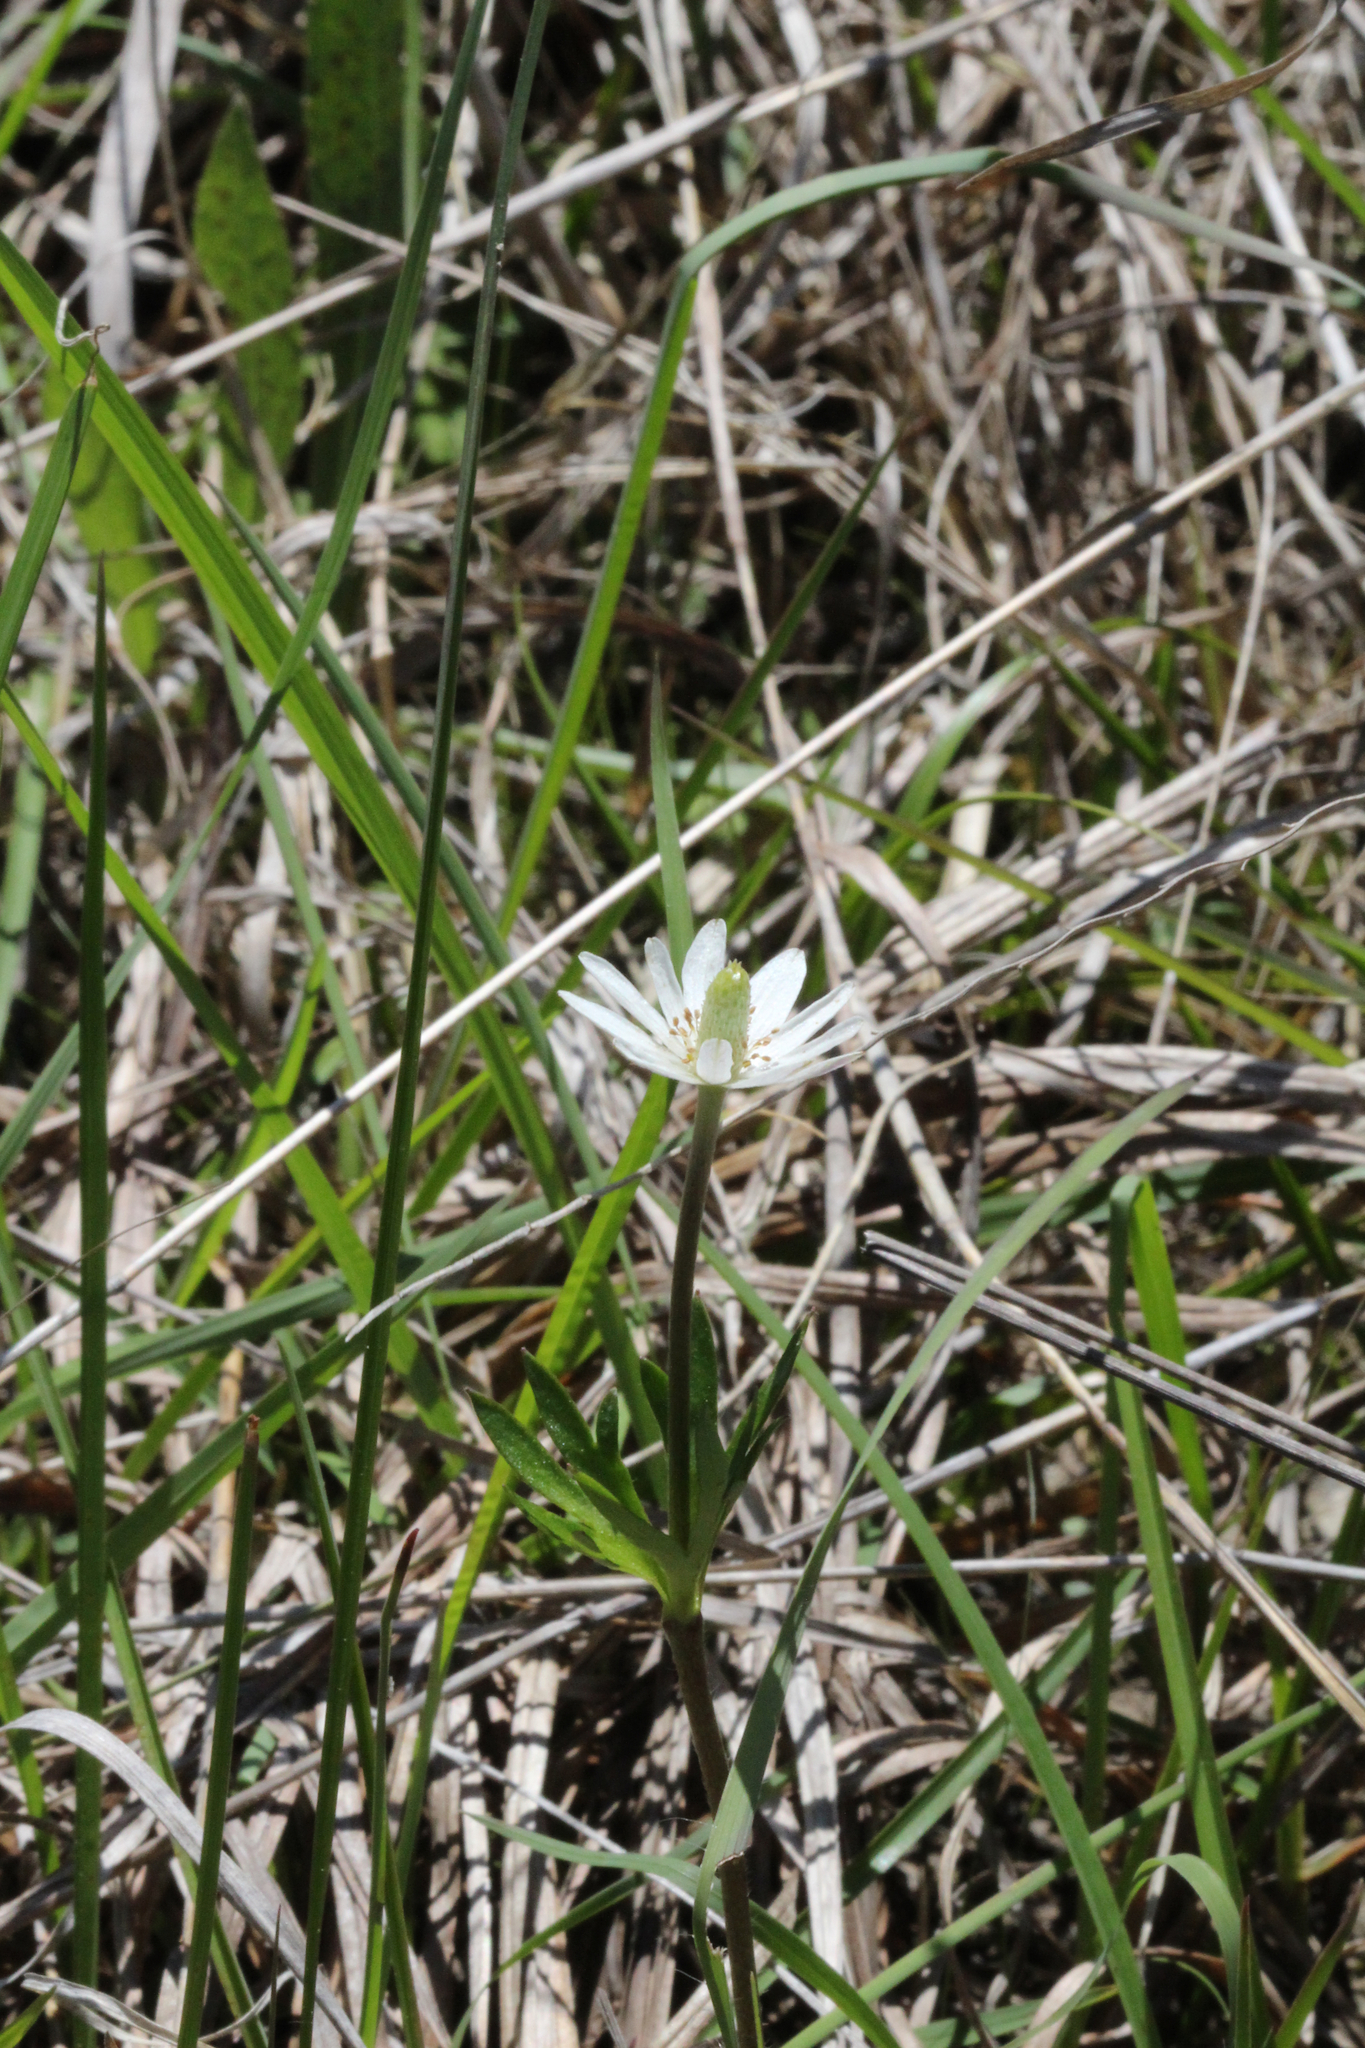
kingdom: Plantae
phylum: Tracheophyta
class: Magnoliopsida
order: Ranunculales
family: Ranunculaceae
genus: Anemone
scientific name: Anemone berlandieri
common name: Ten-petal anemone
